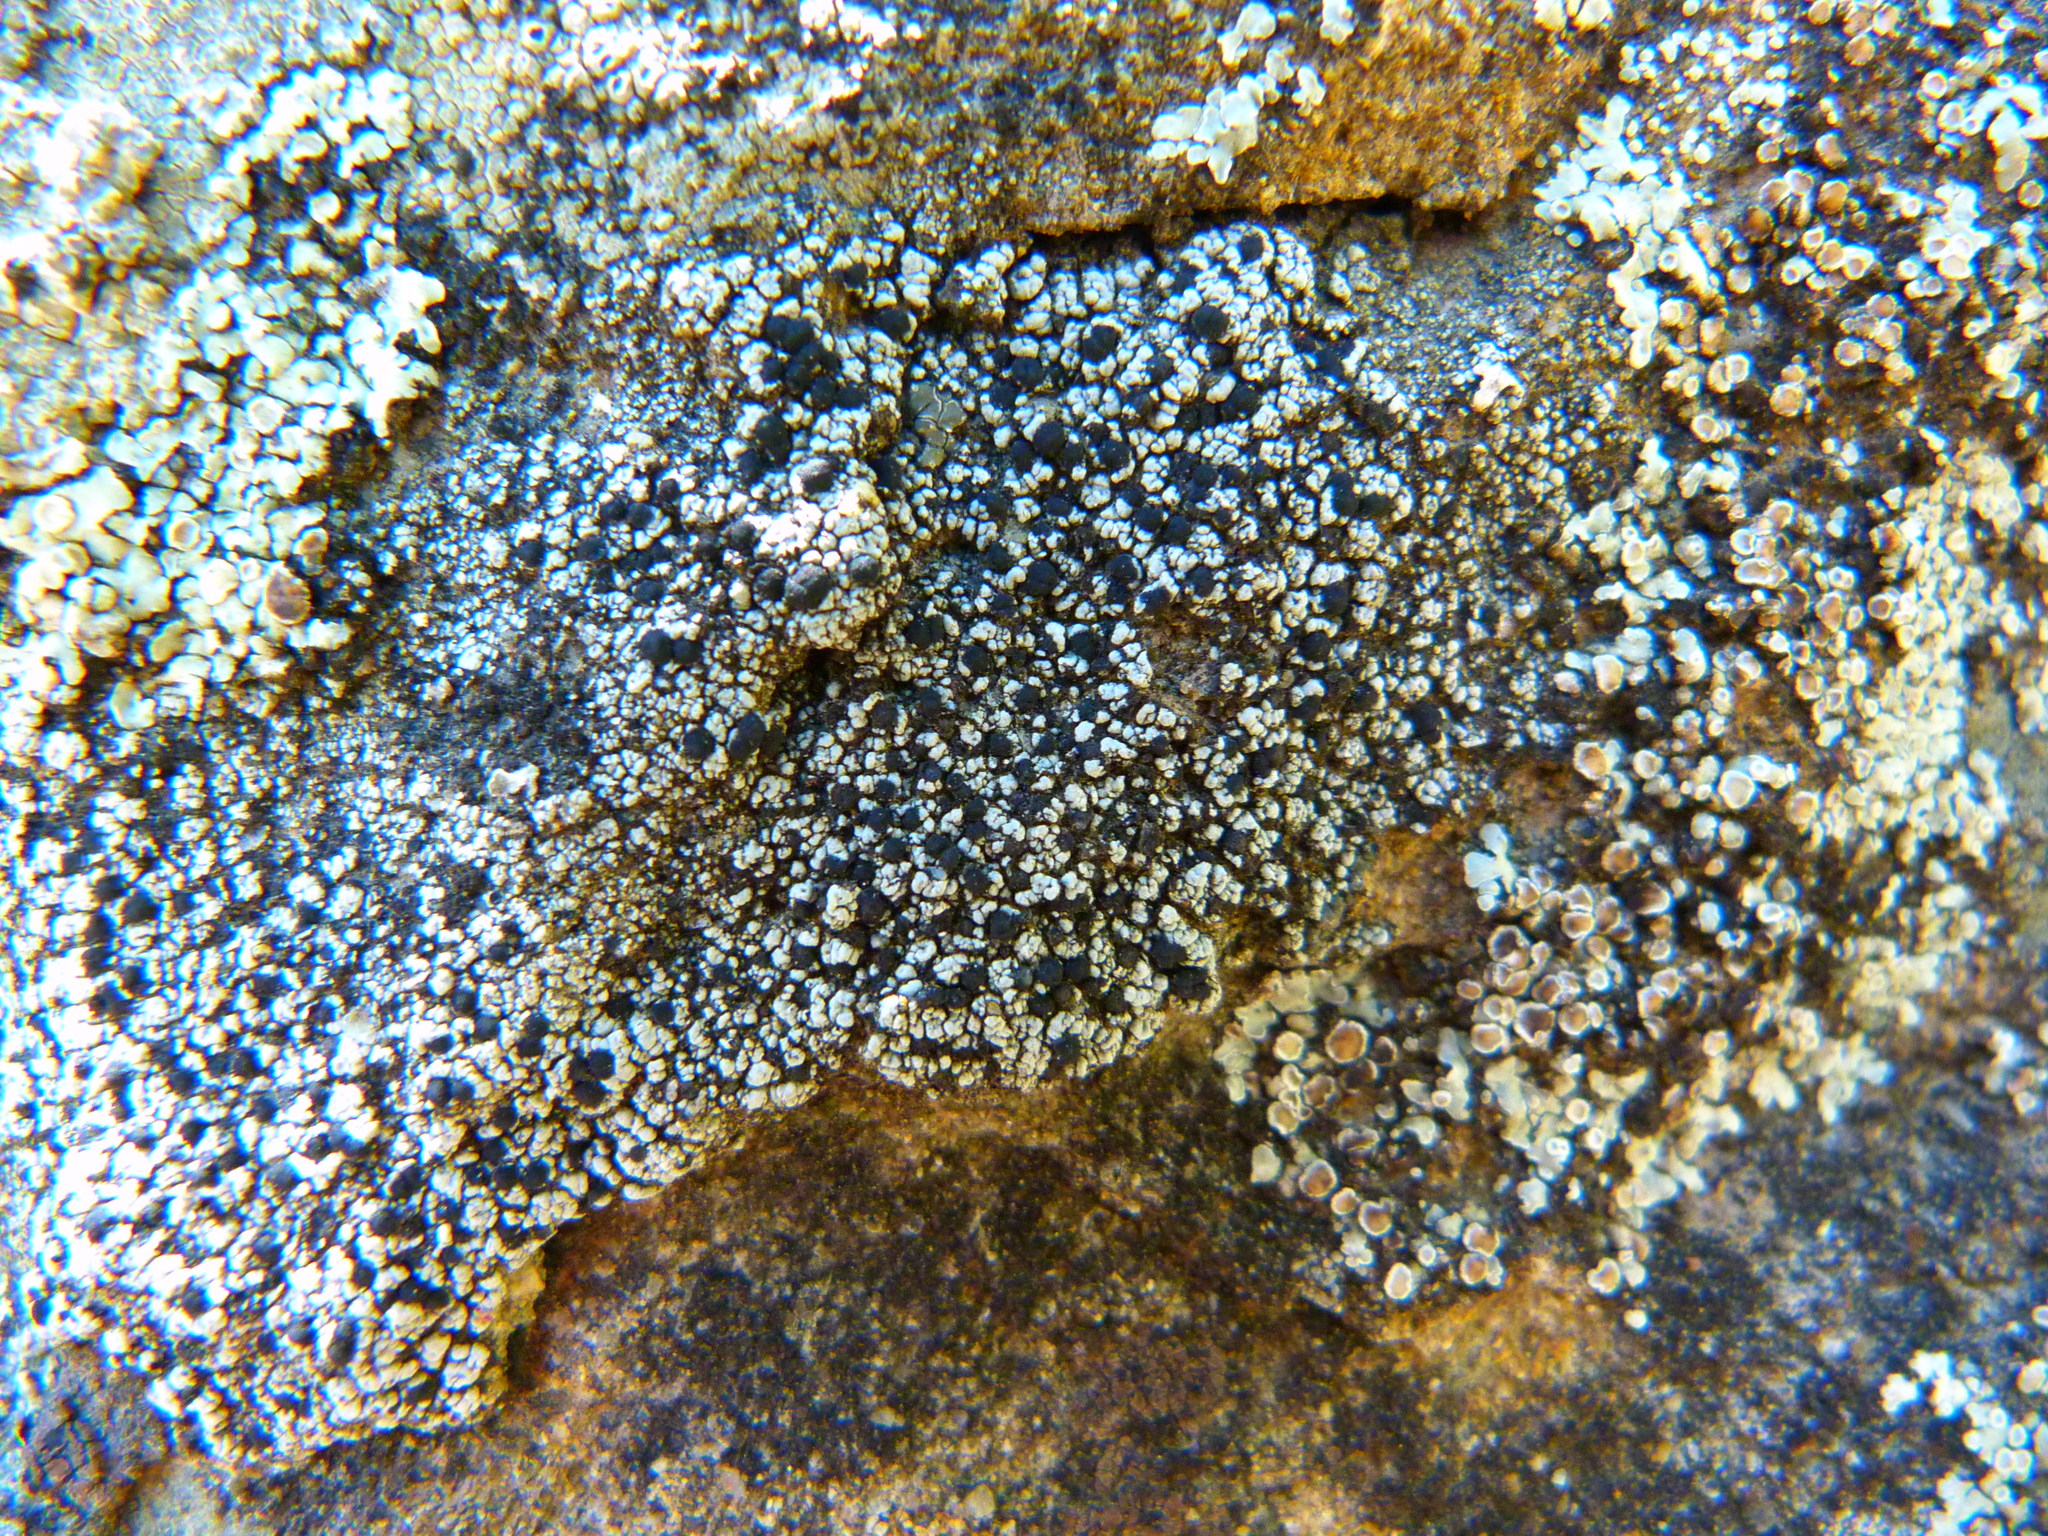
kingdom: Fungi
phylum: Ascomycota
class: Lecanoromycetes
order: Rhizocarpales
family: Rhizocarpaceae
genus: Rhizocarpon
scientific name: Rhizocarpon disporum
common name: Single-spored map lichen
